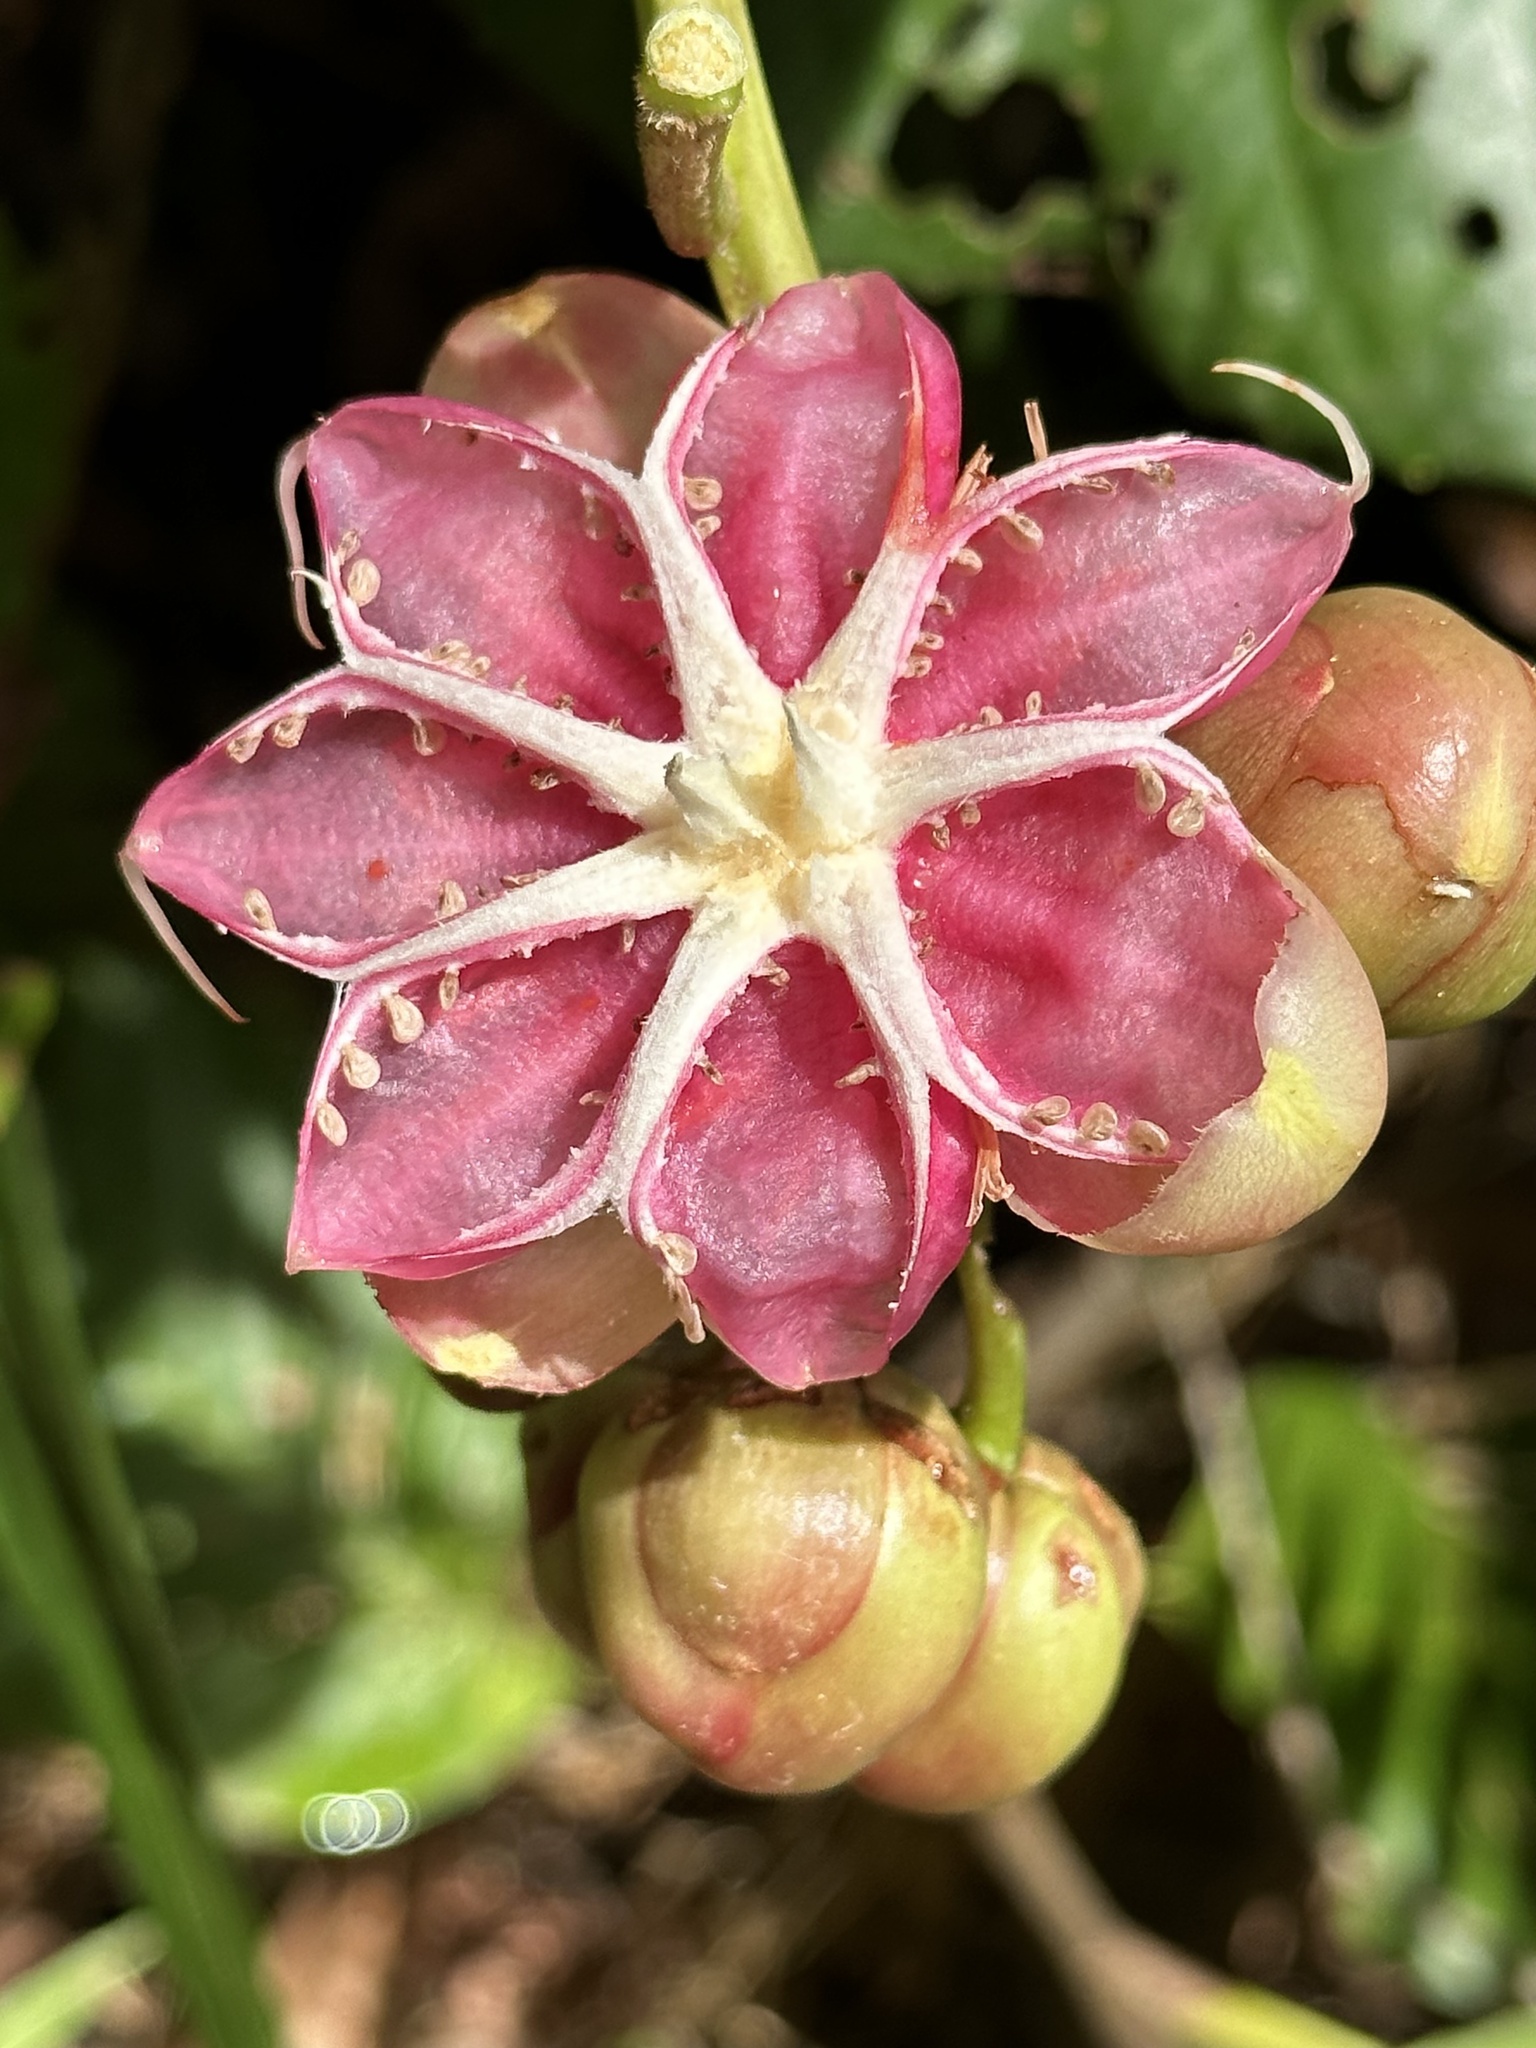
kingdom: Plantae
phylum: Tracheophyta
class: Magnoliopsida
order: Dilleniales
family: Dilleniaceae
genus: Dillenia
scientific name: Dillenia suffruticosa
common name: Shrubby dillenia
